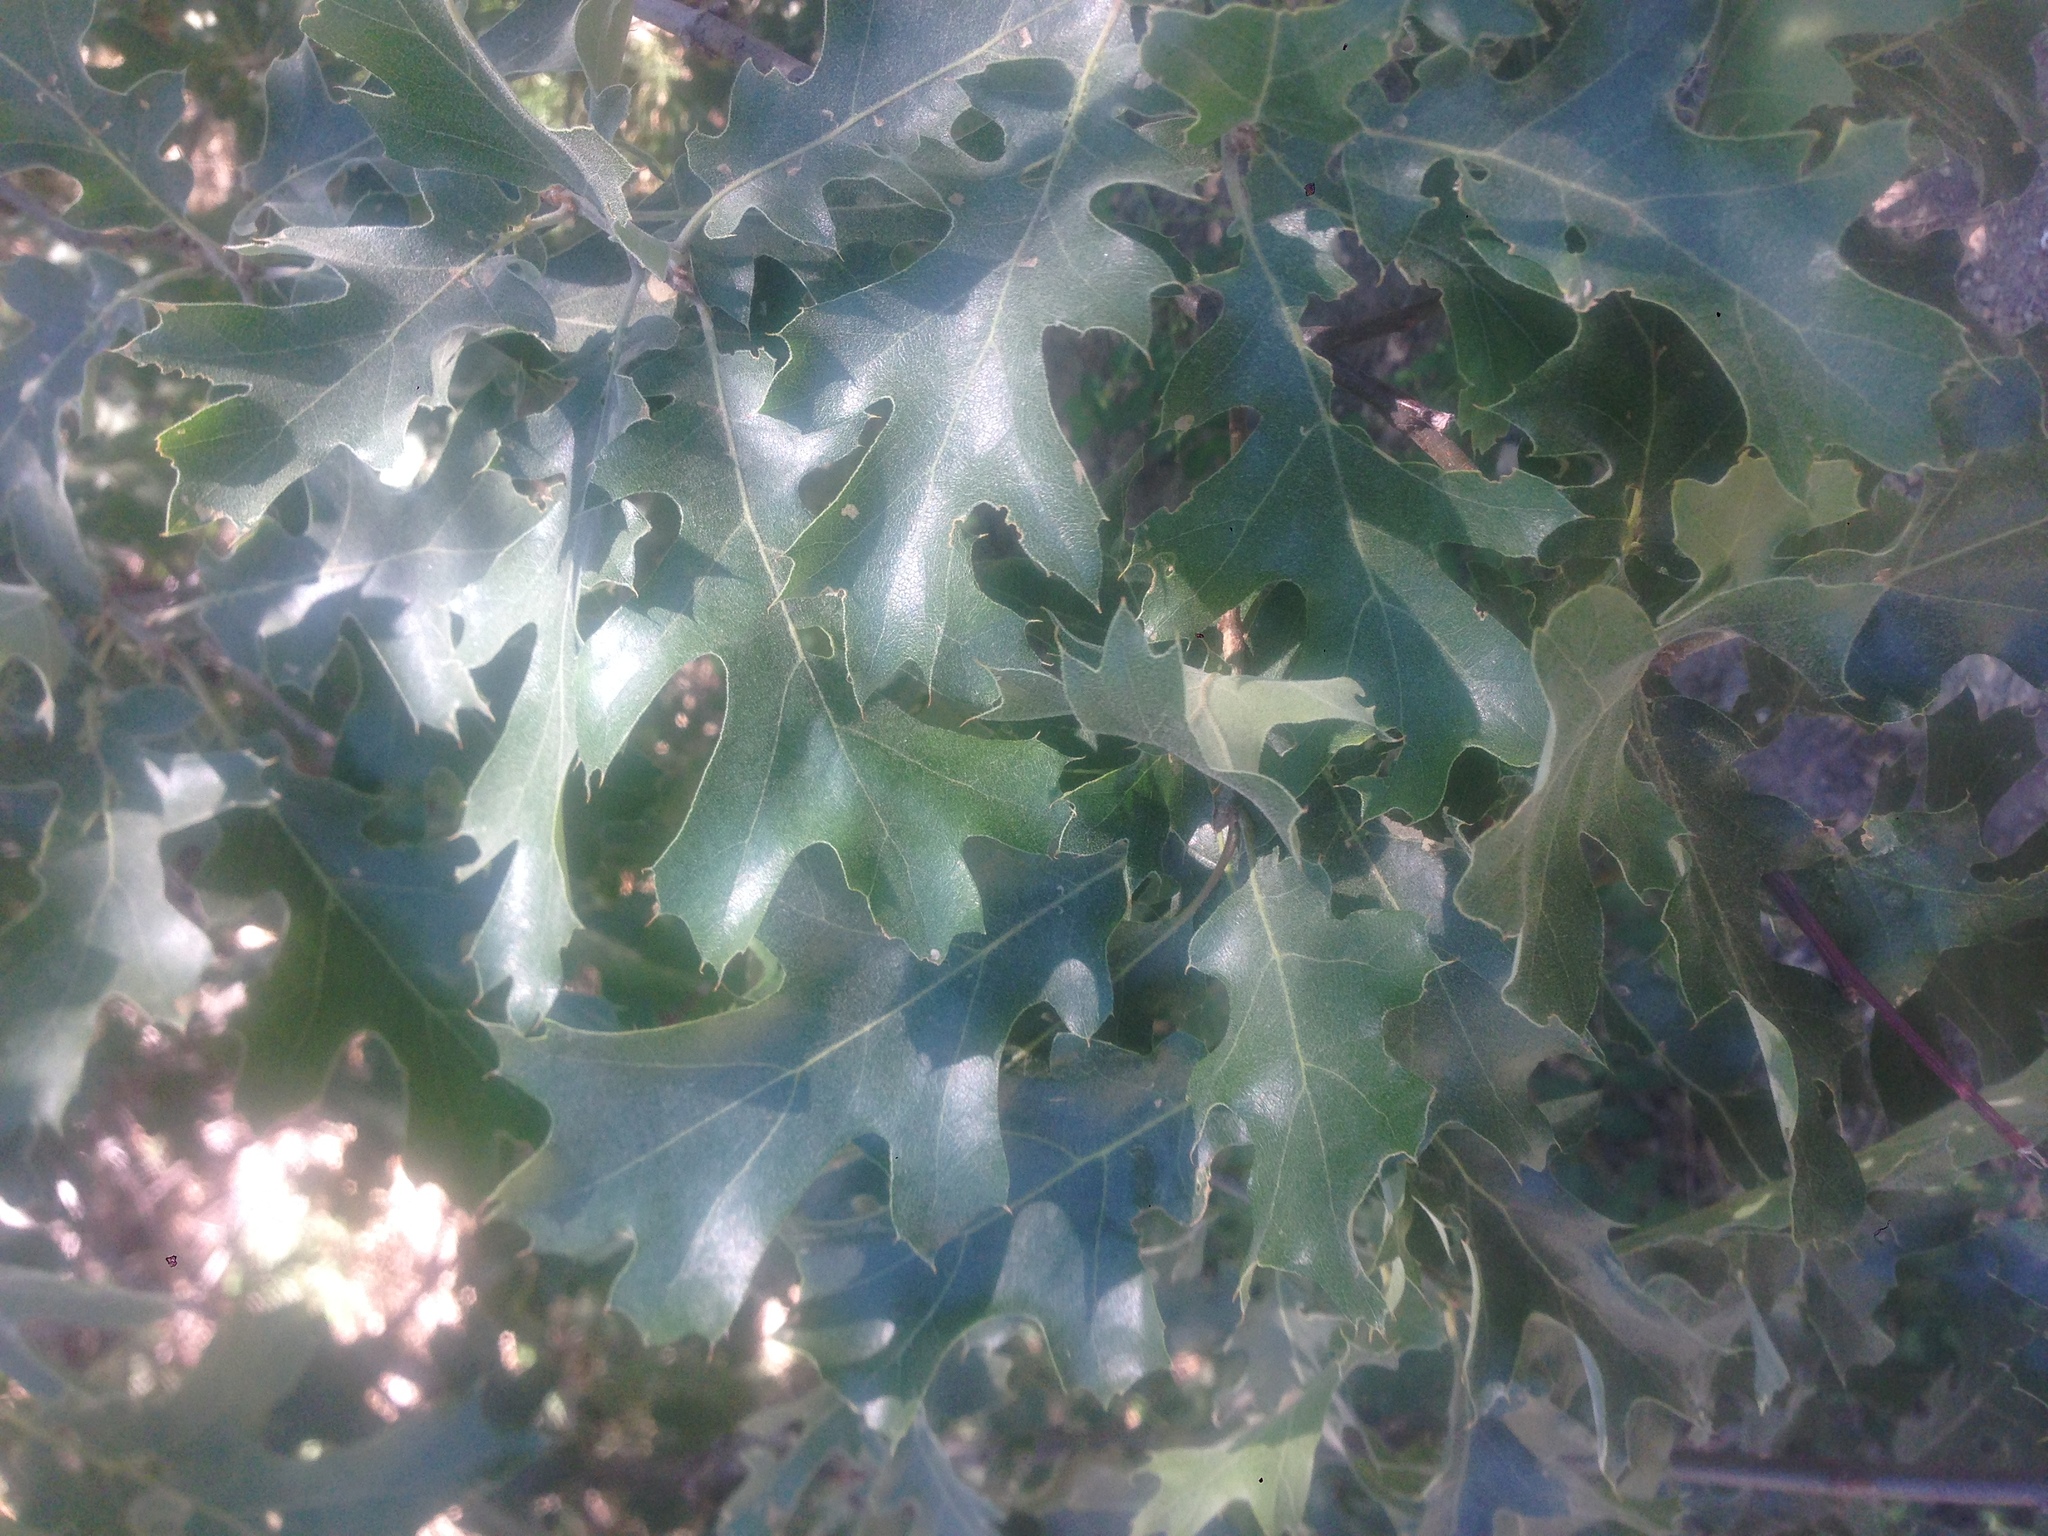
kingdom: Plantae
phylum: Tracheophyta
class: Magnoliopsida
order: Fagales
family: Fagaceae
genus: Quercus
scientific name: Quercus kelloggii
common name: California black oak
